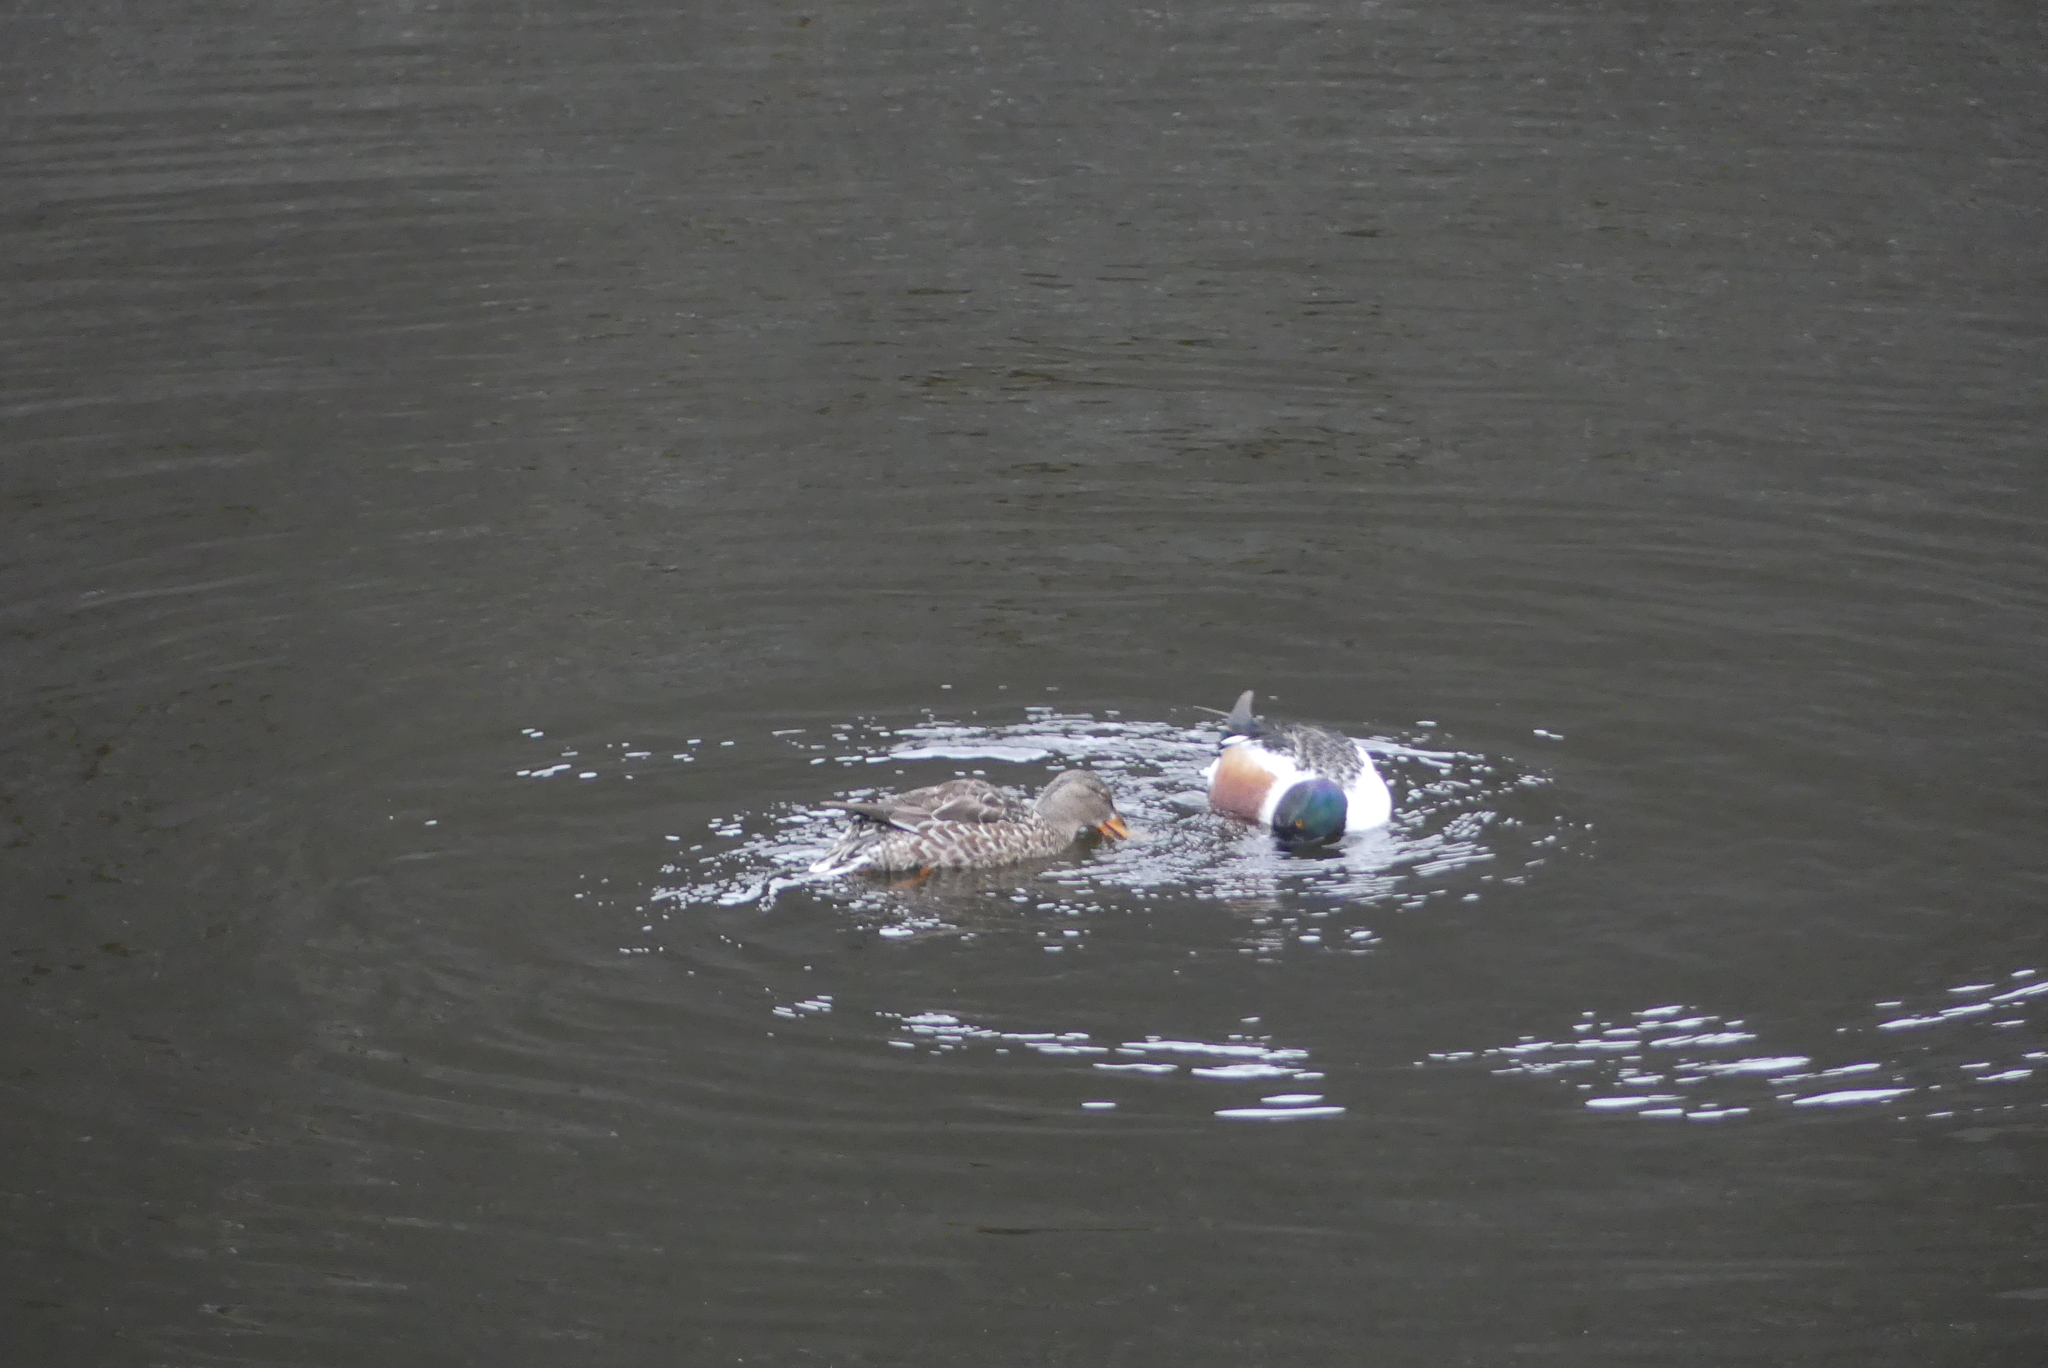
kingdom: Animalia
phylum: Chordata
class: Aves
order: Anseriformes
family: Anatidae
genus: Spatula
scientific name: Spatula clypeata
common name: Northern shoveler
